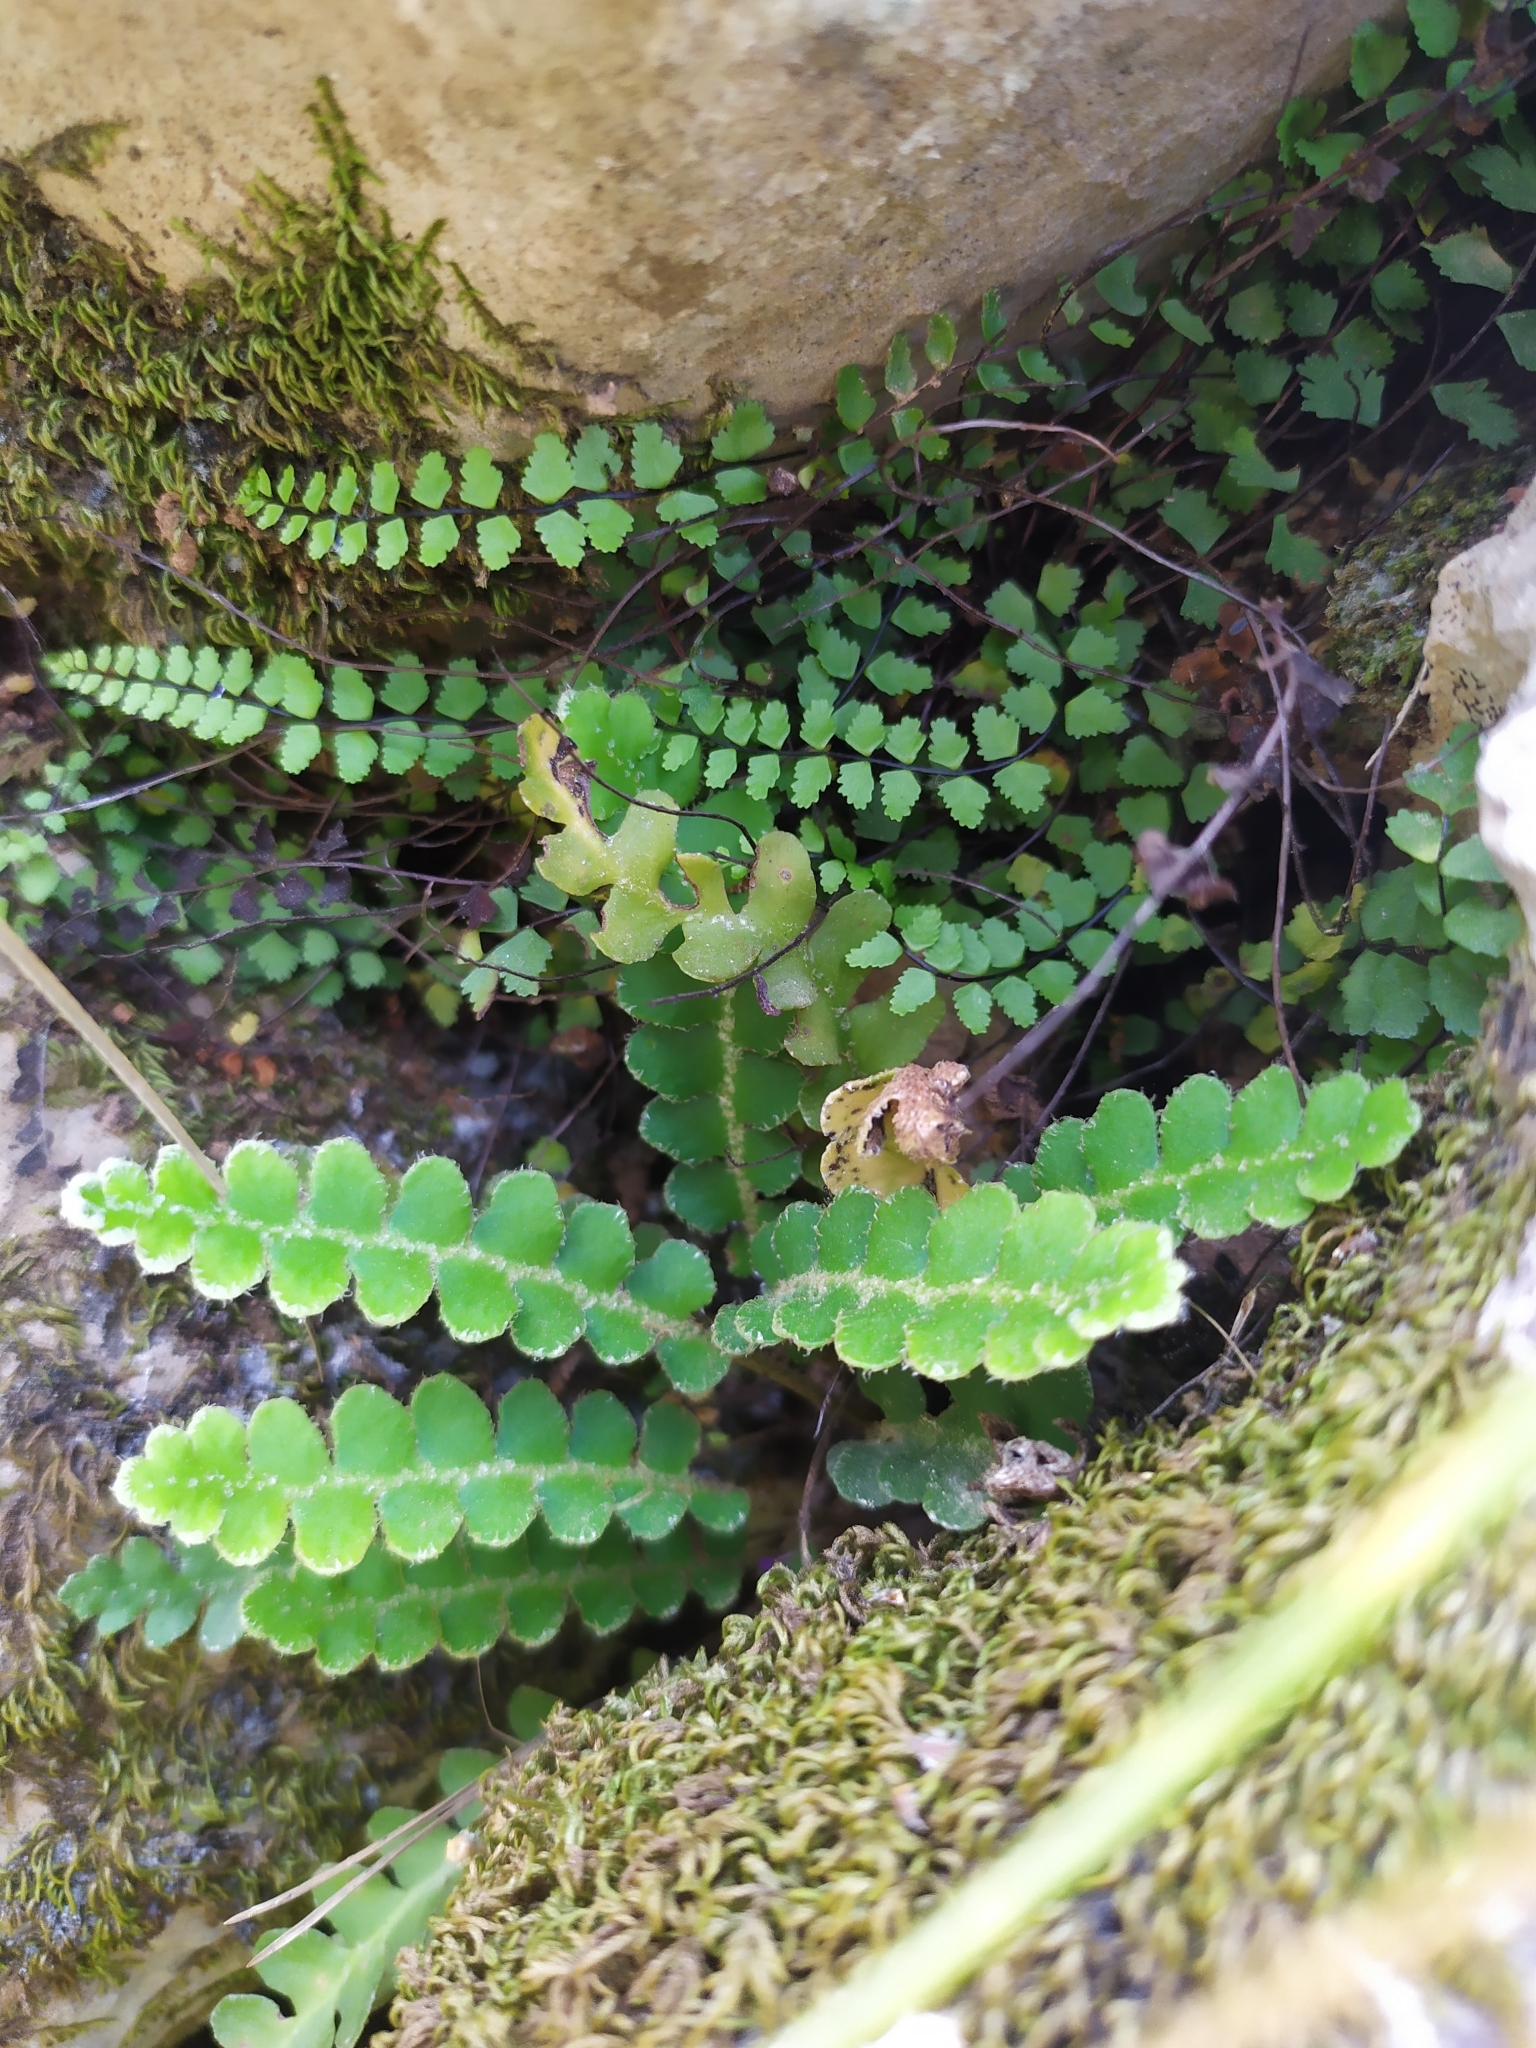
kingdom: Plantae
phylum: Tracheophyta
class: Polypodiopsida
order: Polypodiales
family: Aspleniaceae
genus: Asplenium
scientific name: Asplenium trichomanes
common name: Maidenhair spleenwort
